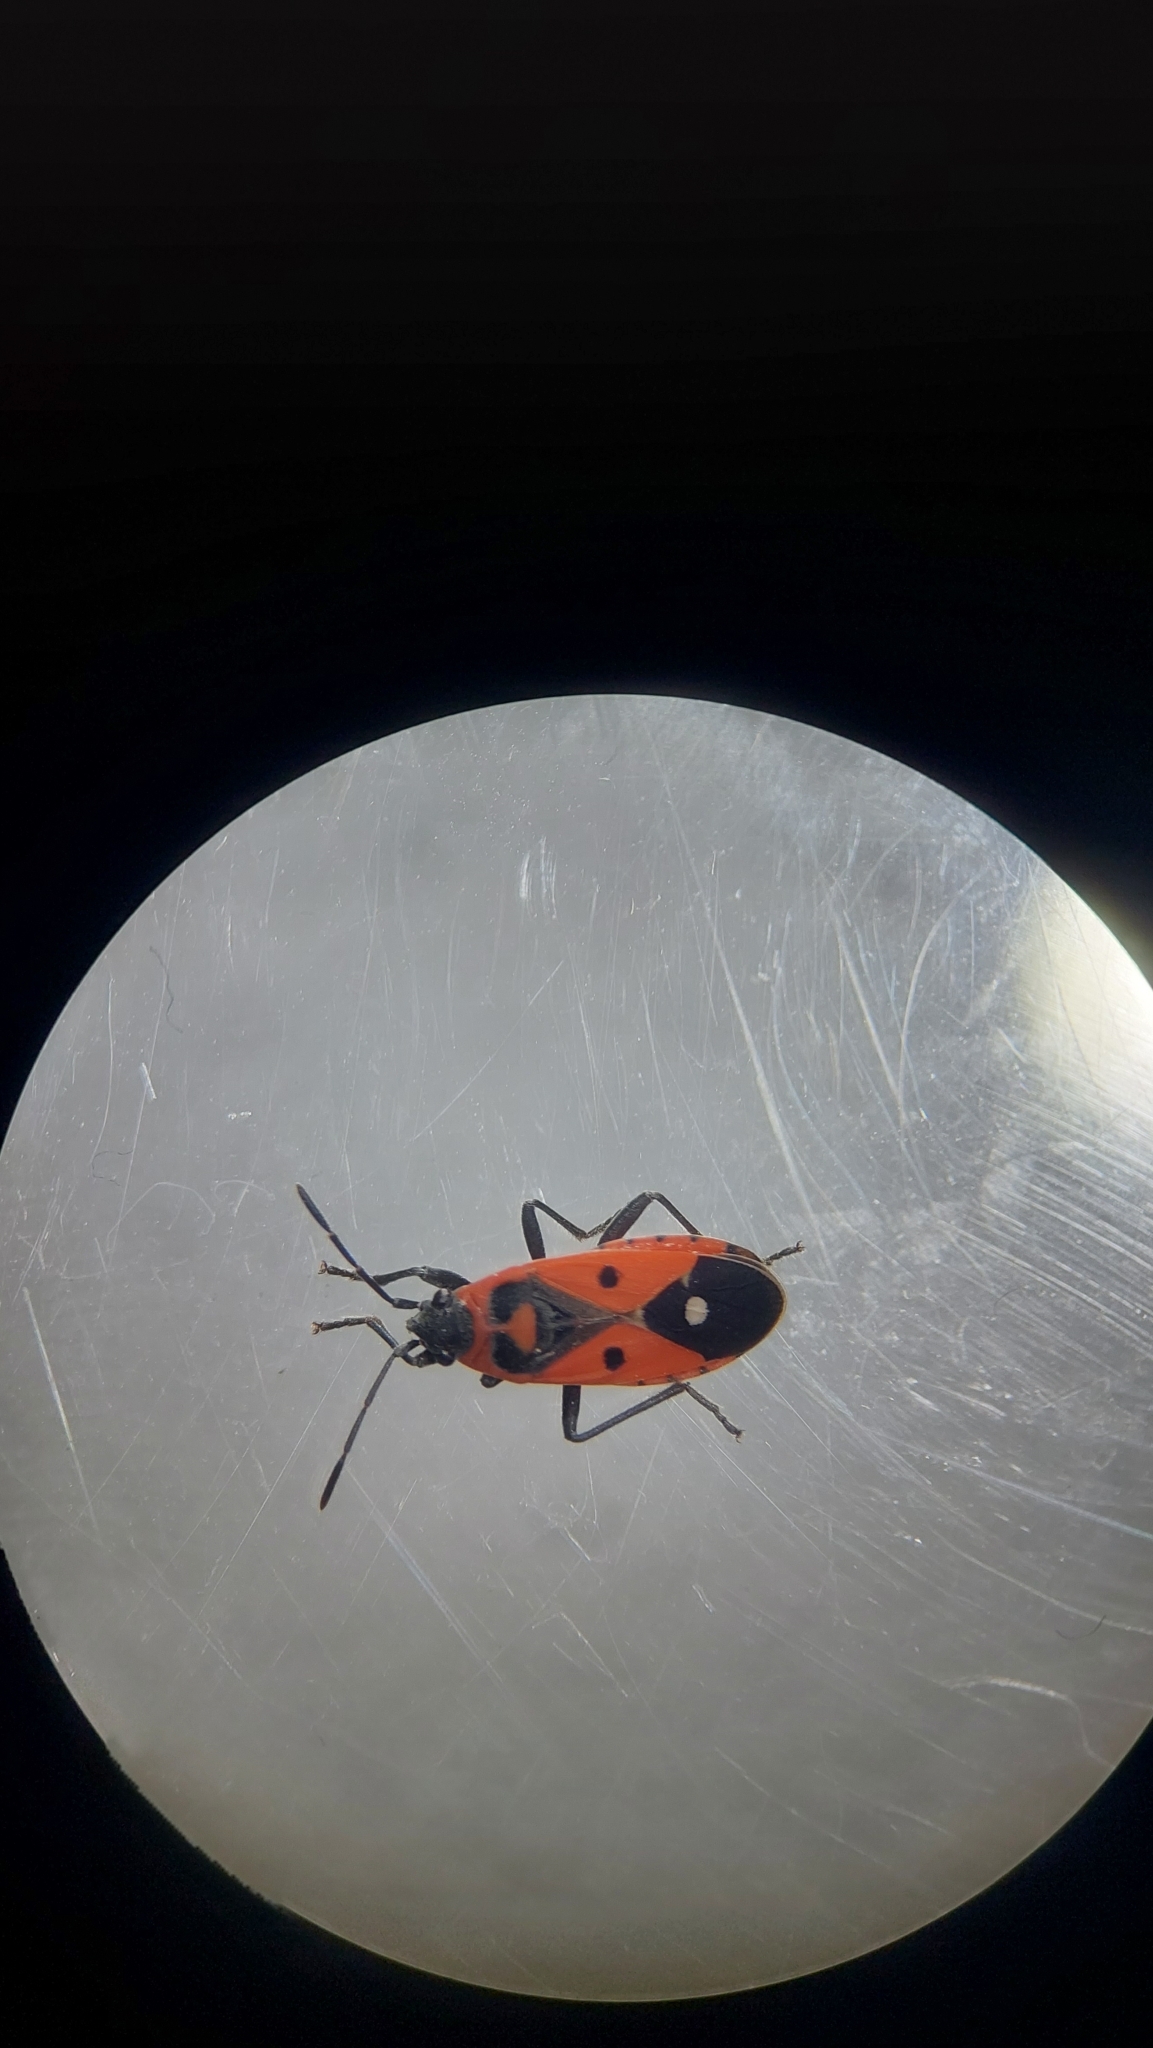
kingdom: Animalia
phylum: Arthropoda
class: Insecta
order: Hemiptera
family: Lygaeidae
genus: Melanocoryphus
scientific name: Melanocoryphus albomaculatus
